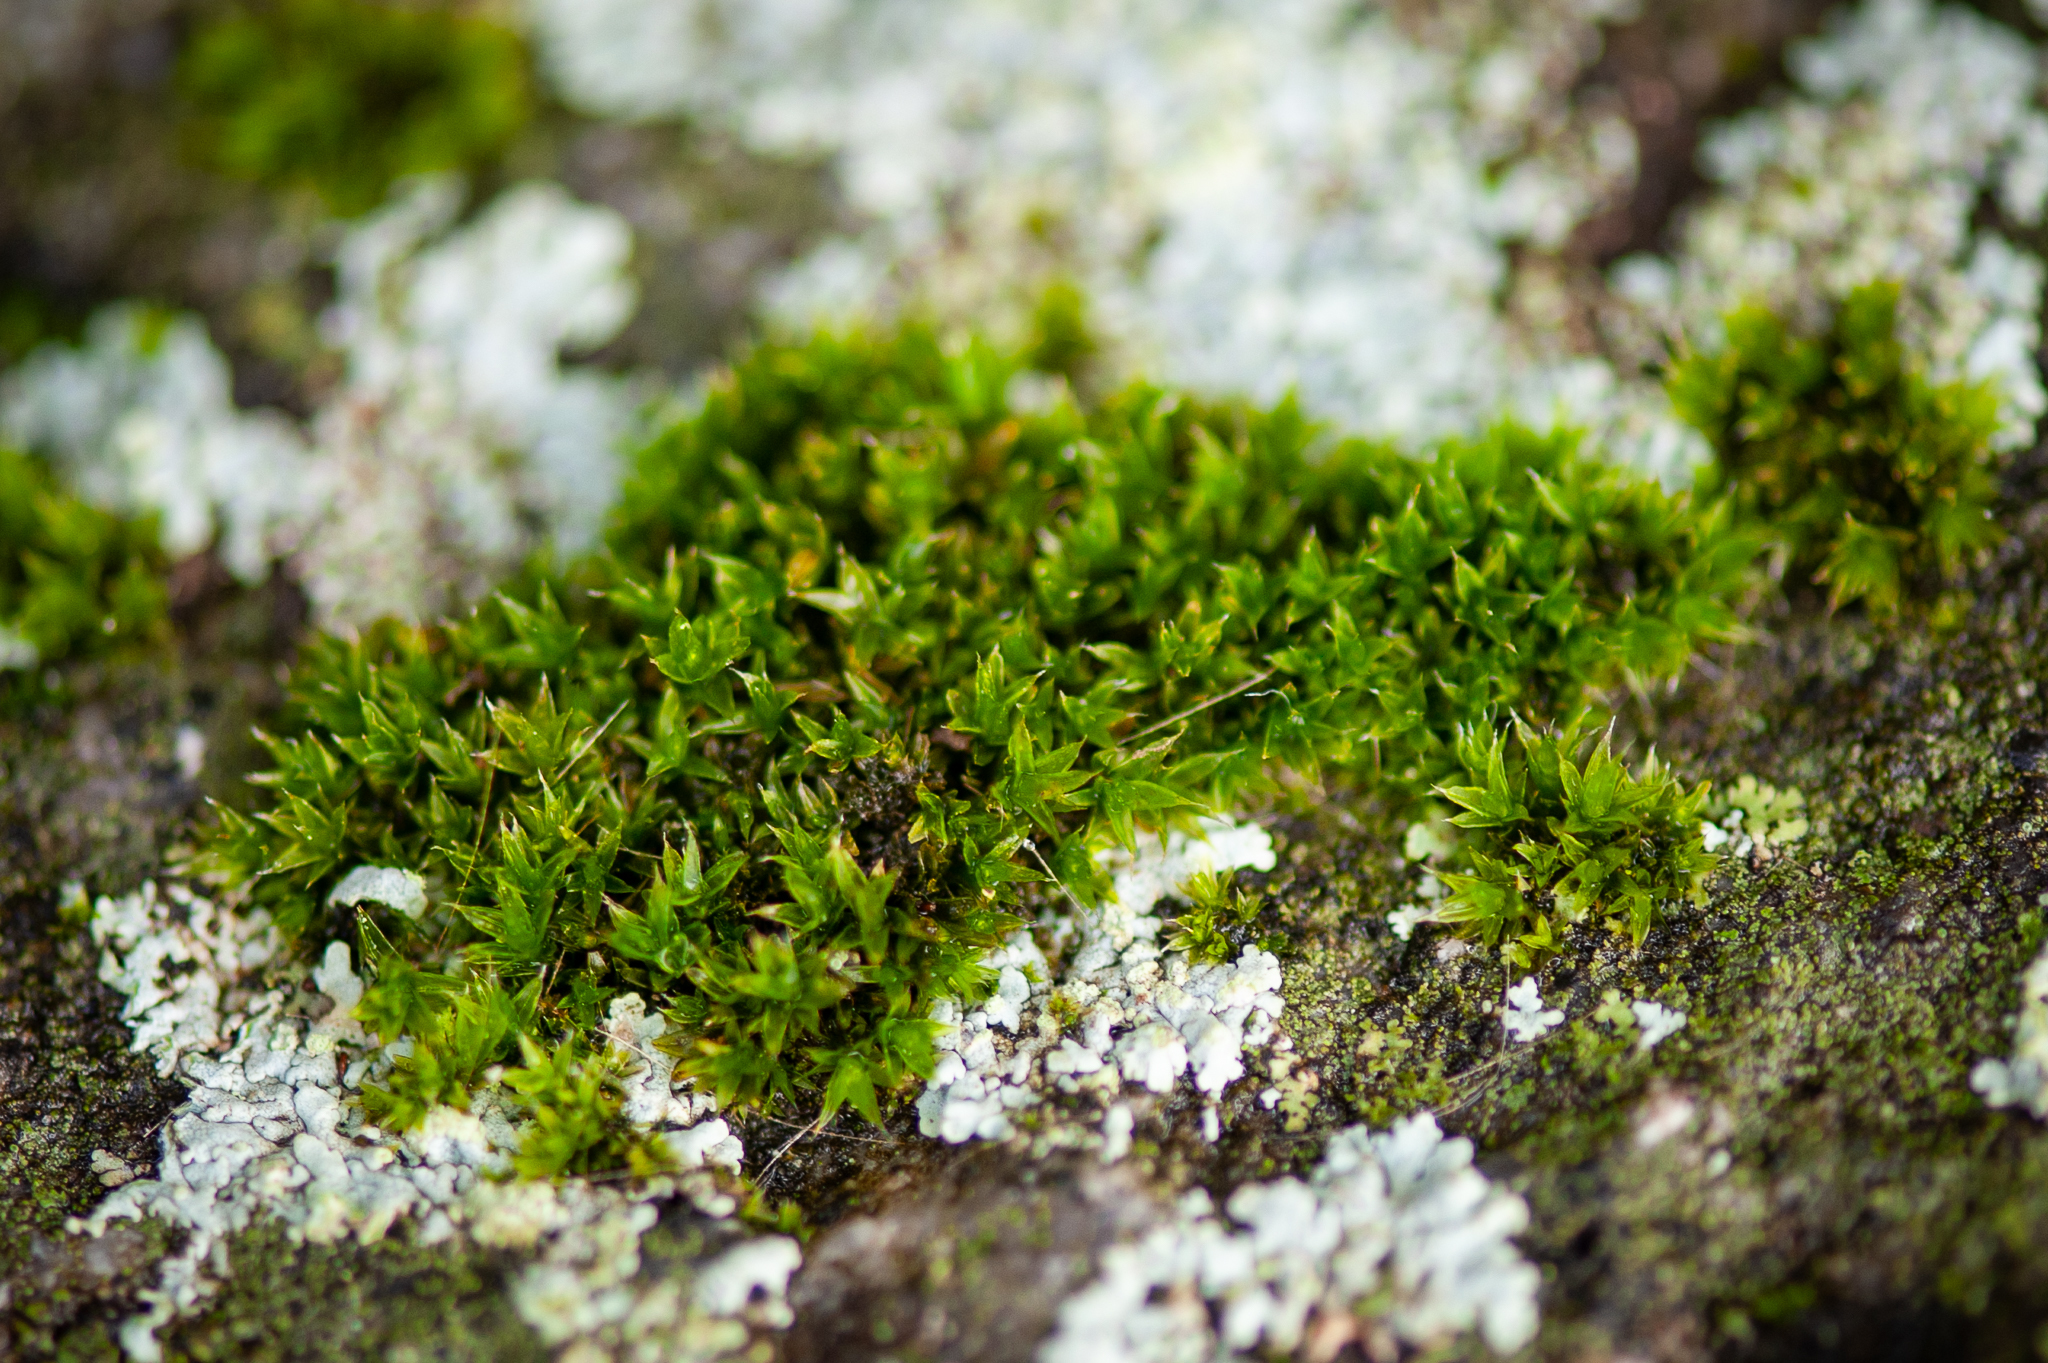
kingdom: Plantae
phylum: Bryophyta
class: Bryopsida
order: Orthotrichales
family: Orthotrichaceae
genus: Orthotrichum
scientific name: Orthotrichum diaphanum
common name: White-tipped bristle-moss
